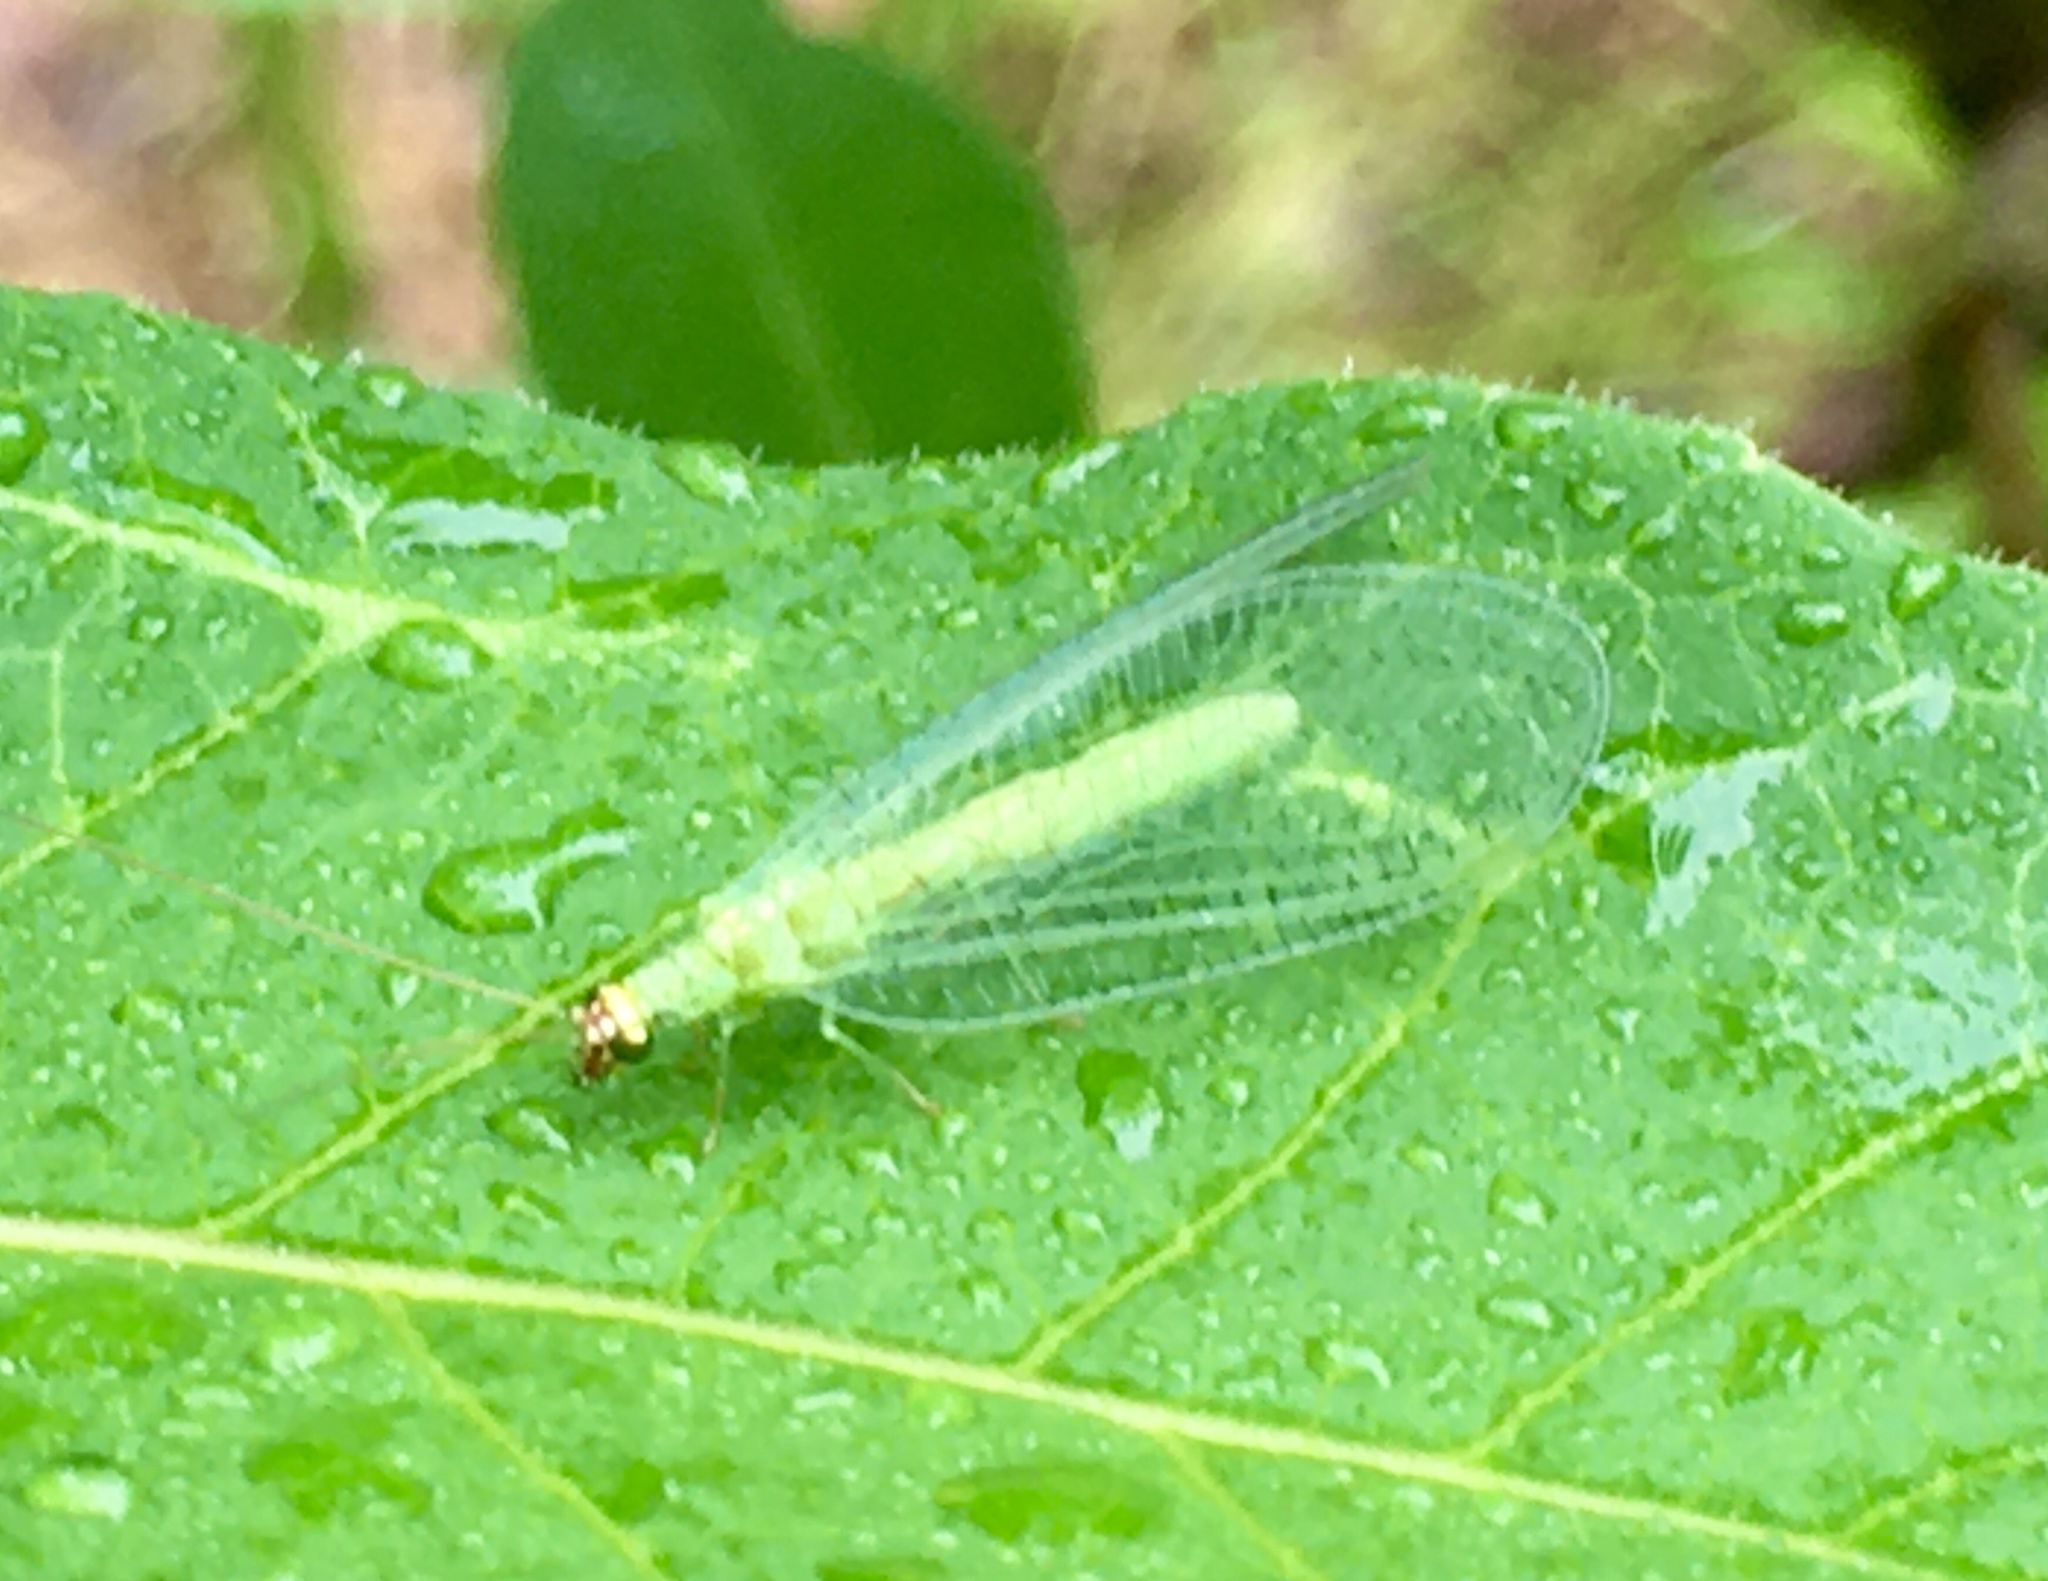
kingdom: Animalia
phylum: Arthropoda
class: Insecta
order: Neuroptera
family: Chrysopidae
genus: Chrysopa
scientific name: Chrysopa oculata
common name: Golden-eyed lacewing
